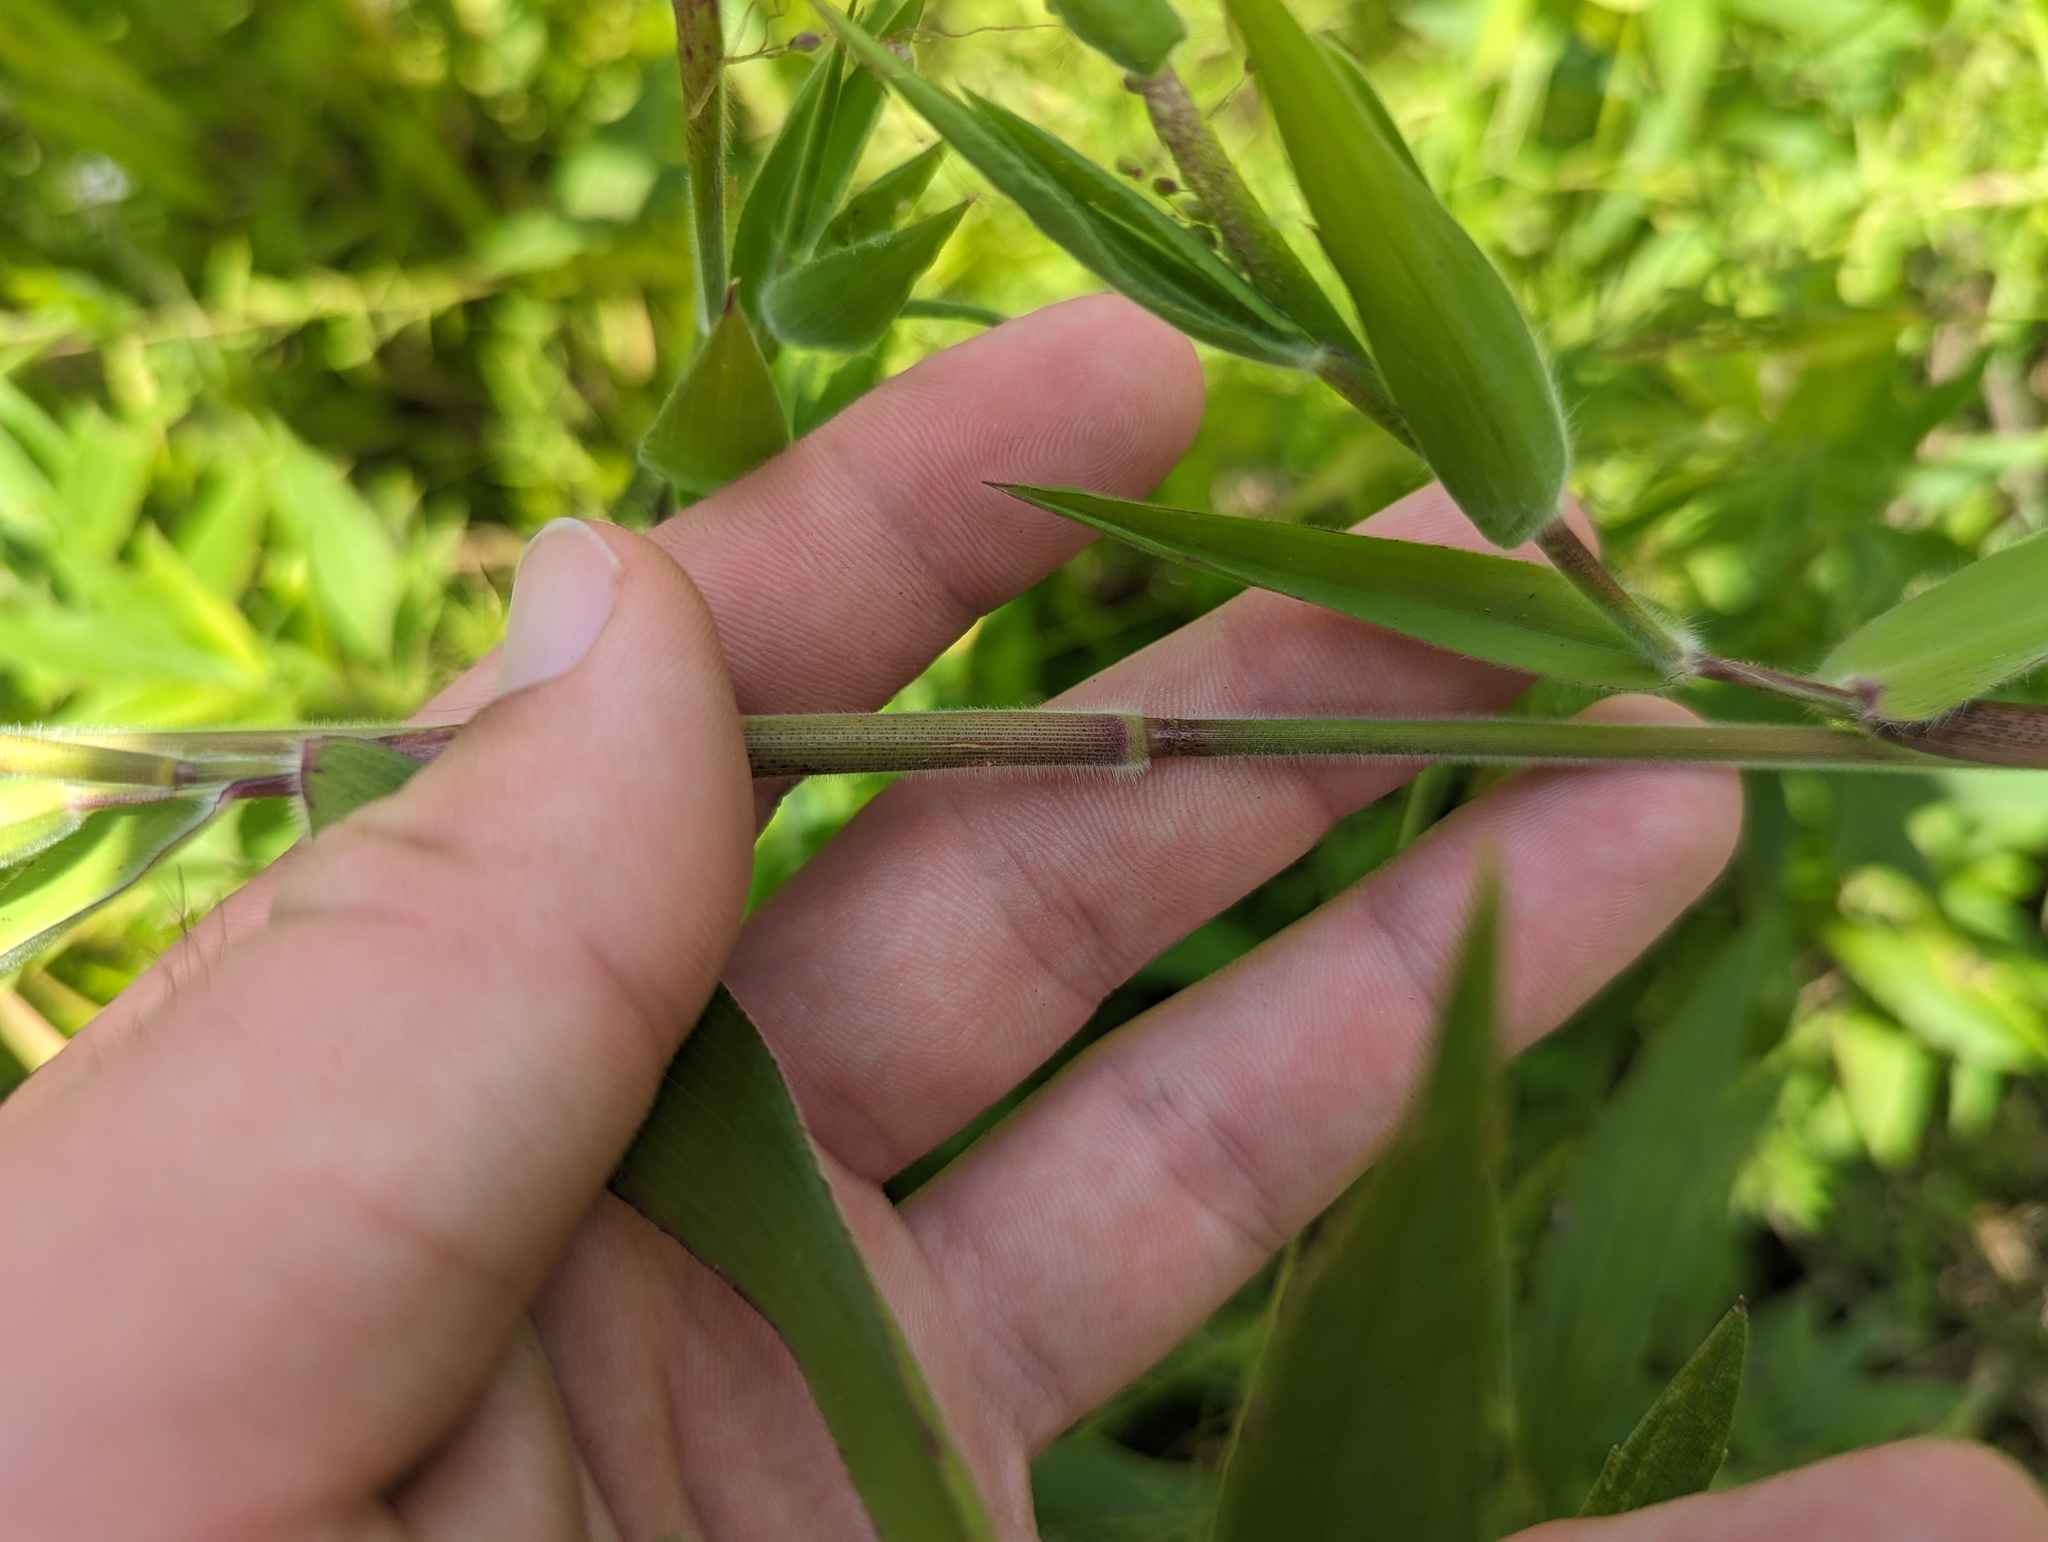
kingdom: Plantae
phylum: Tracheophyta
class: Liliopsida
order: Poales
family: Poaceae
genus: Dichanthelium
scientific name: Dichanthelium scoparium
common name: Velvety panic grass
